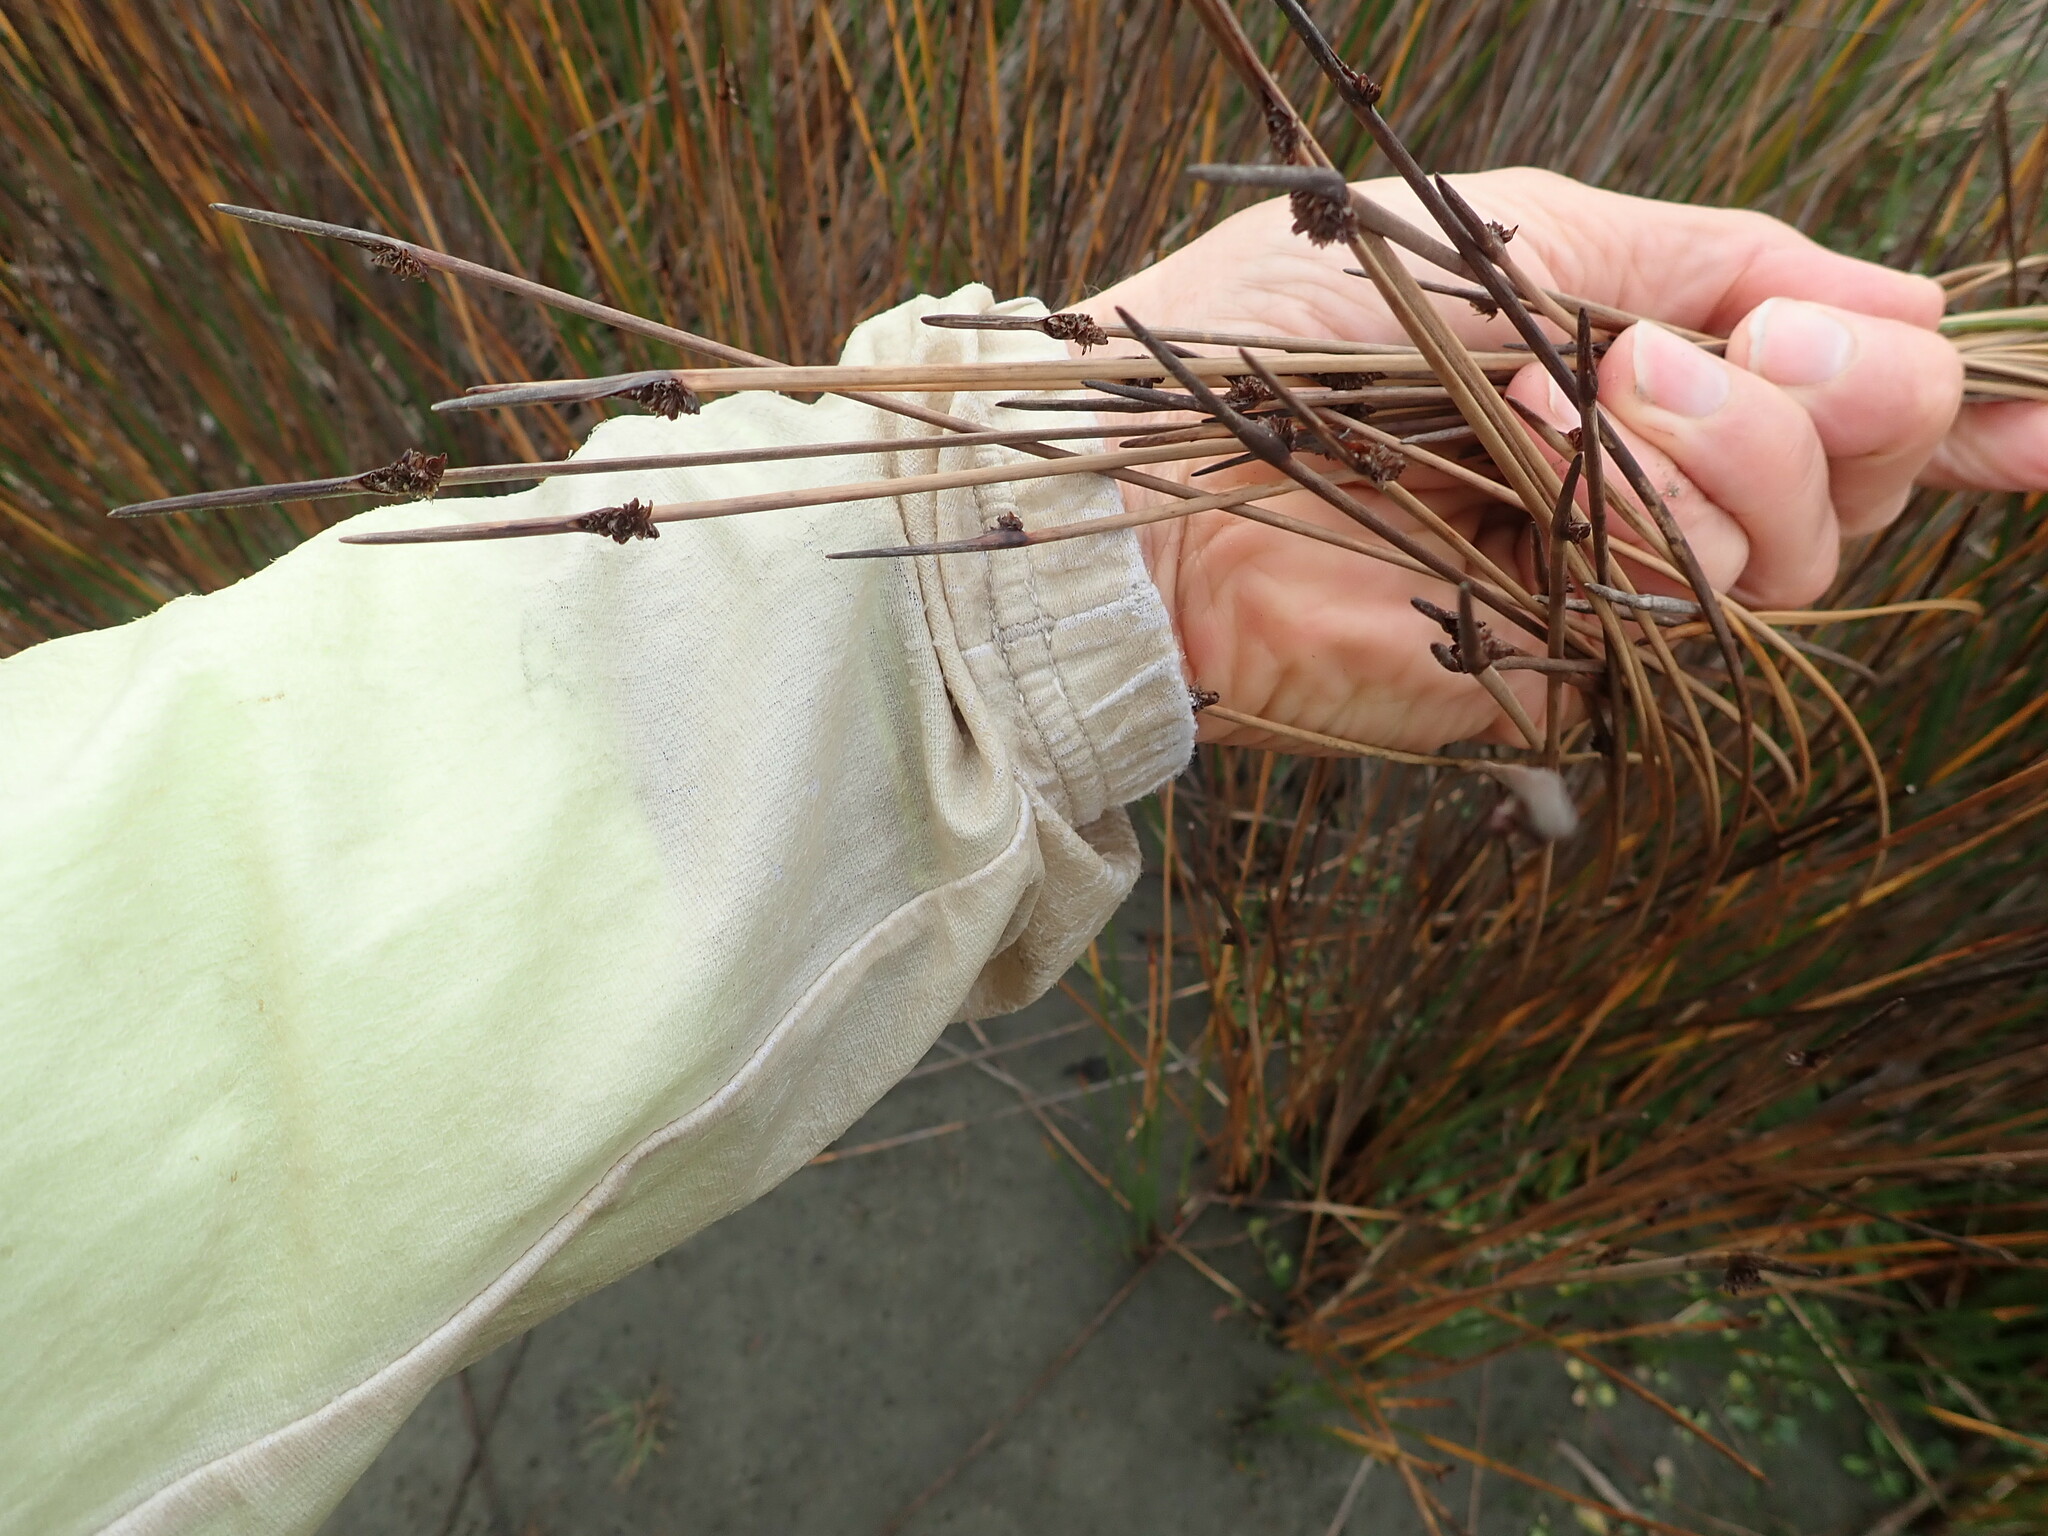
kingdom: Plantae
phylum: Tracheophyta
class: Liliopsida
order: Poales
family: Cyperaceae
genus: Ficinia
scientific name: Ficinia nodosa
